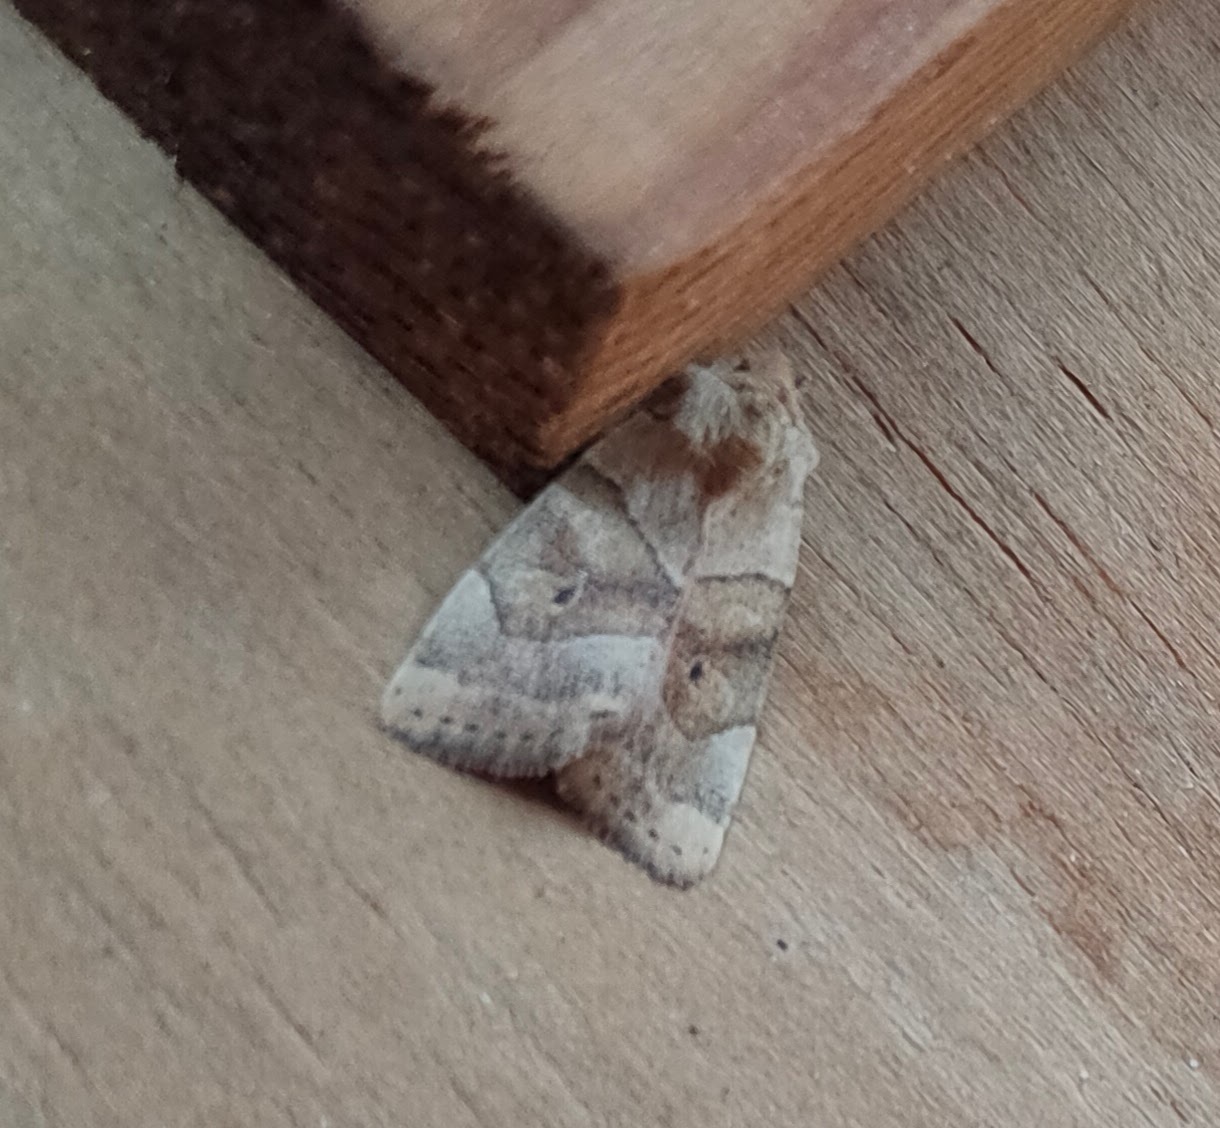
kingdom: Animalia
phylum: Arthropoda
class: Insecta
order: Lepidoptera
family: Noctuidae
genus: Cosmia
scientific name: Cosmia trapezina
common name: Dun-bar
